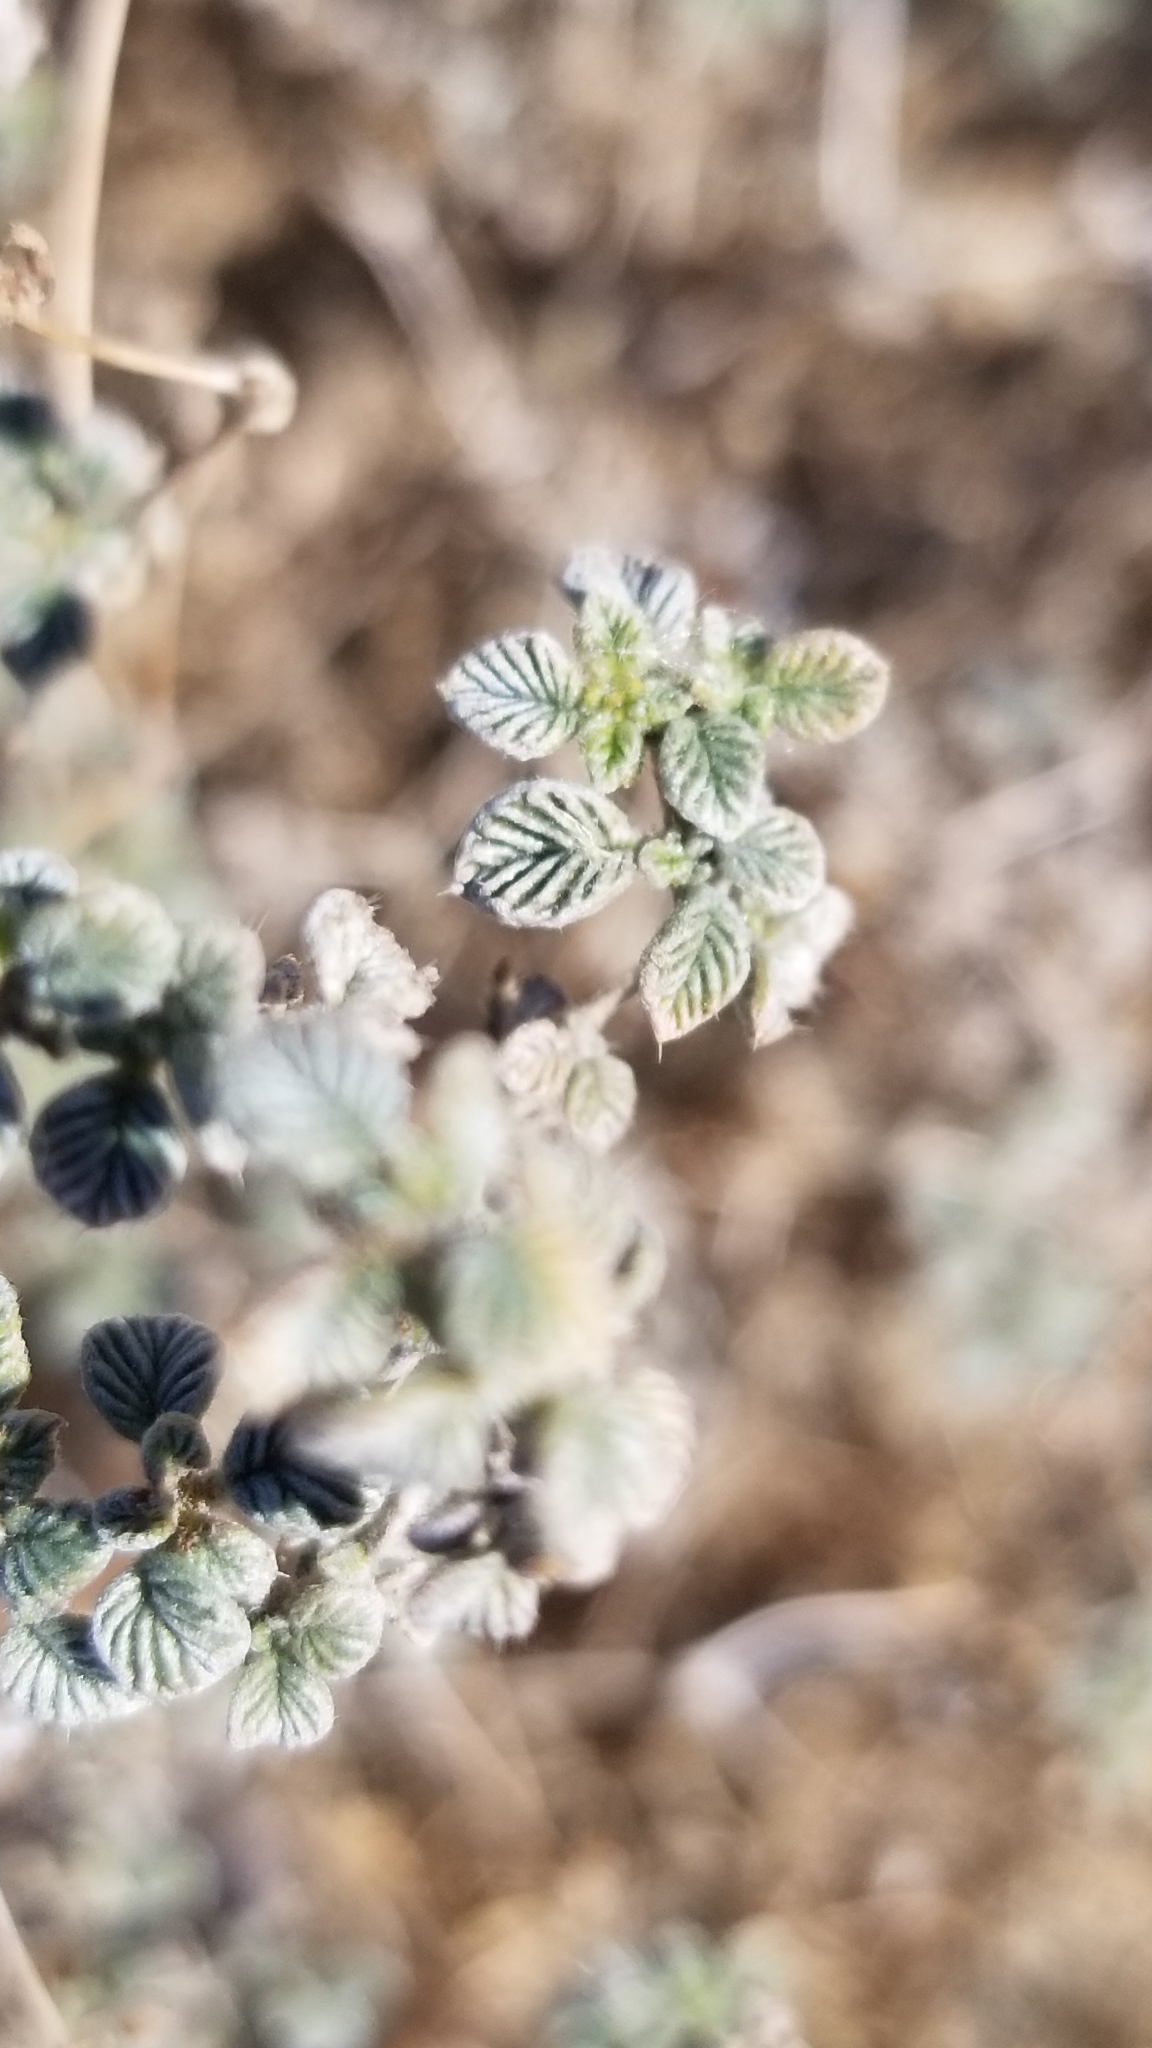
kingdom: Plantae
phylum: Tracheophyta
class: Magnoliopsida
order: Boraginales
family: Ehretiaceae
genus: Tiquilia
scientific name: Tiquilia plicata
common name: Fan-leaf tiquilia
